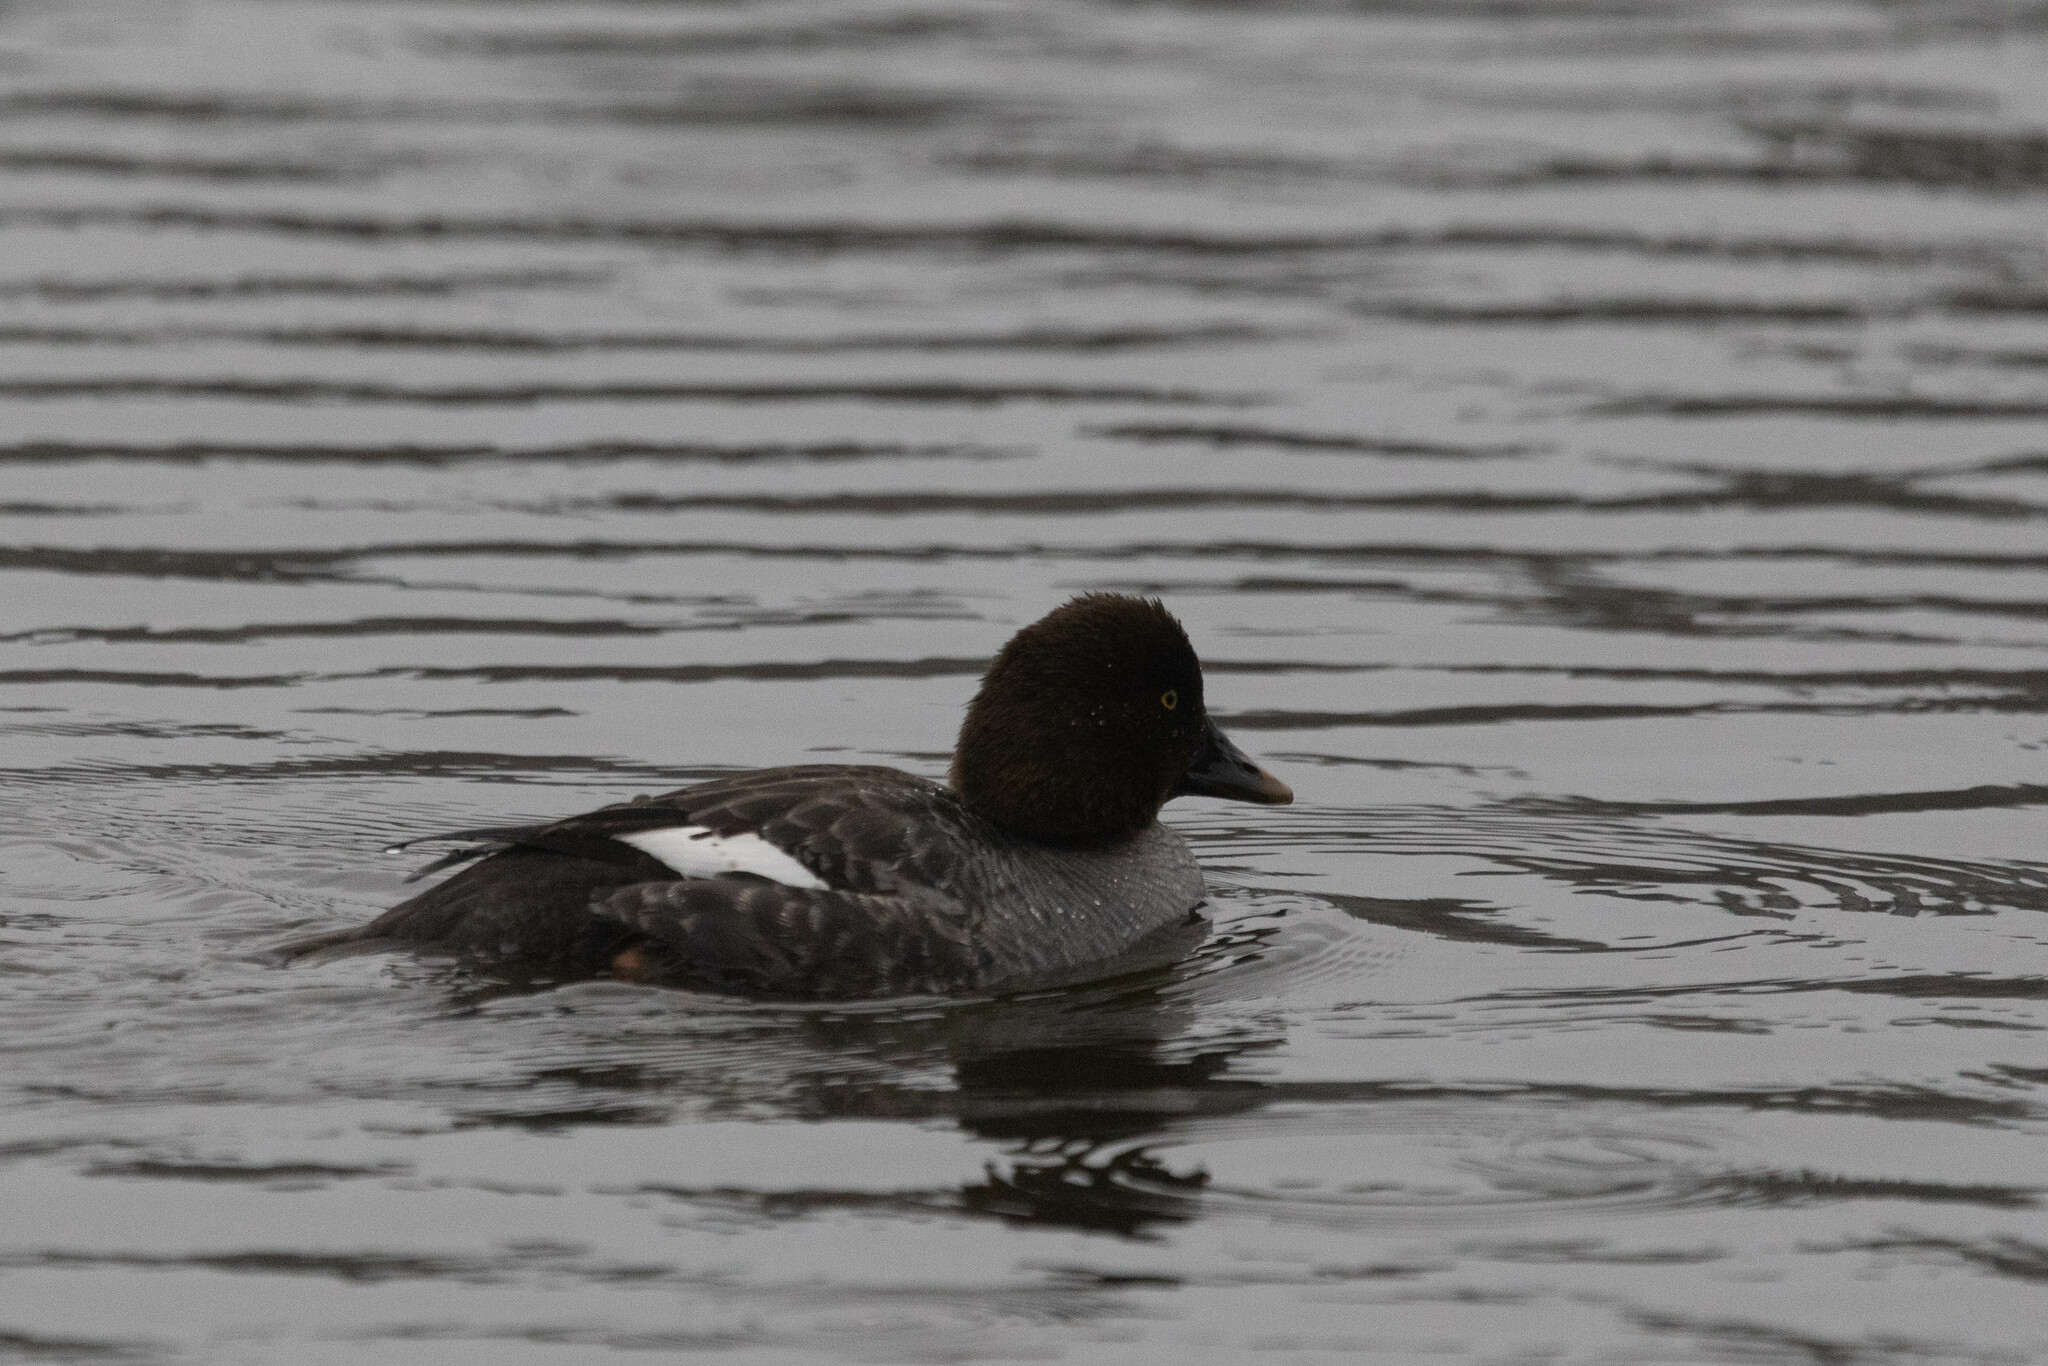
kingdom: Animalia
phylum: Chordata
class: Aves
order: Anseriformes
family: Anatidae
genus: Bucephala
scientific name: Bucephala clangula
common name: Common goldeneye
